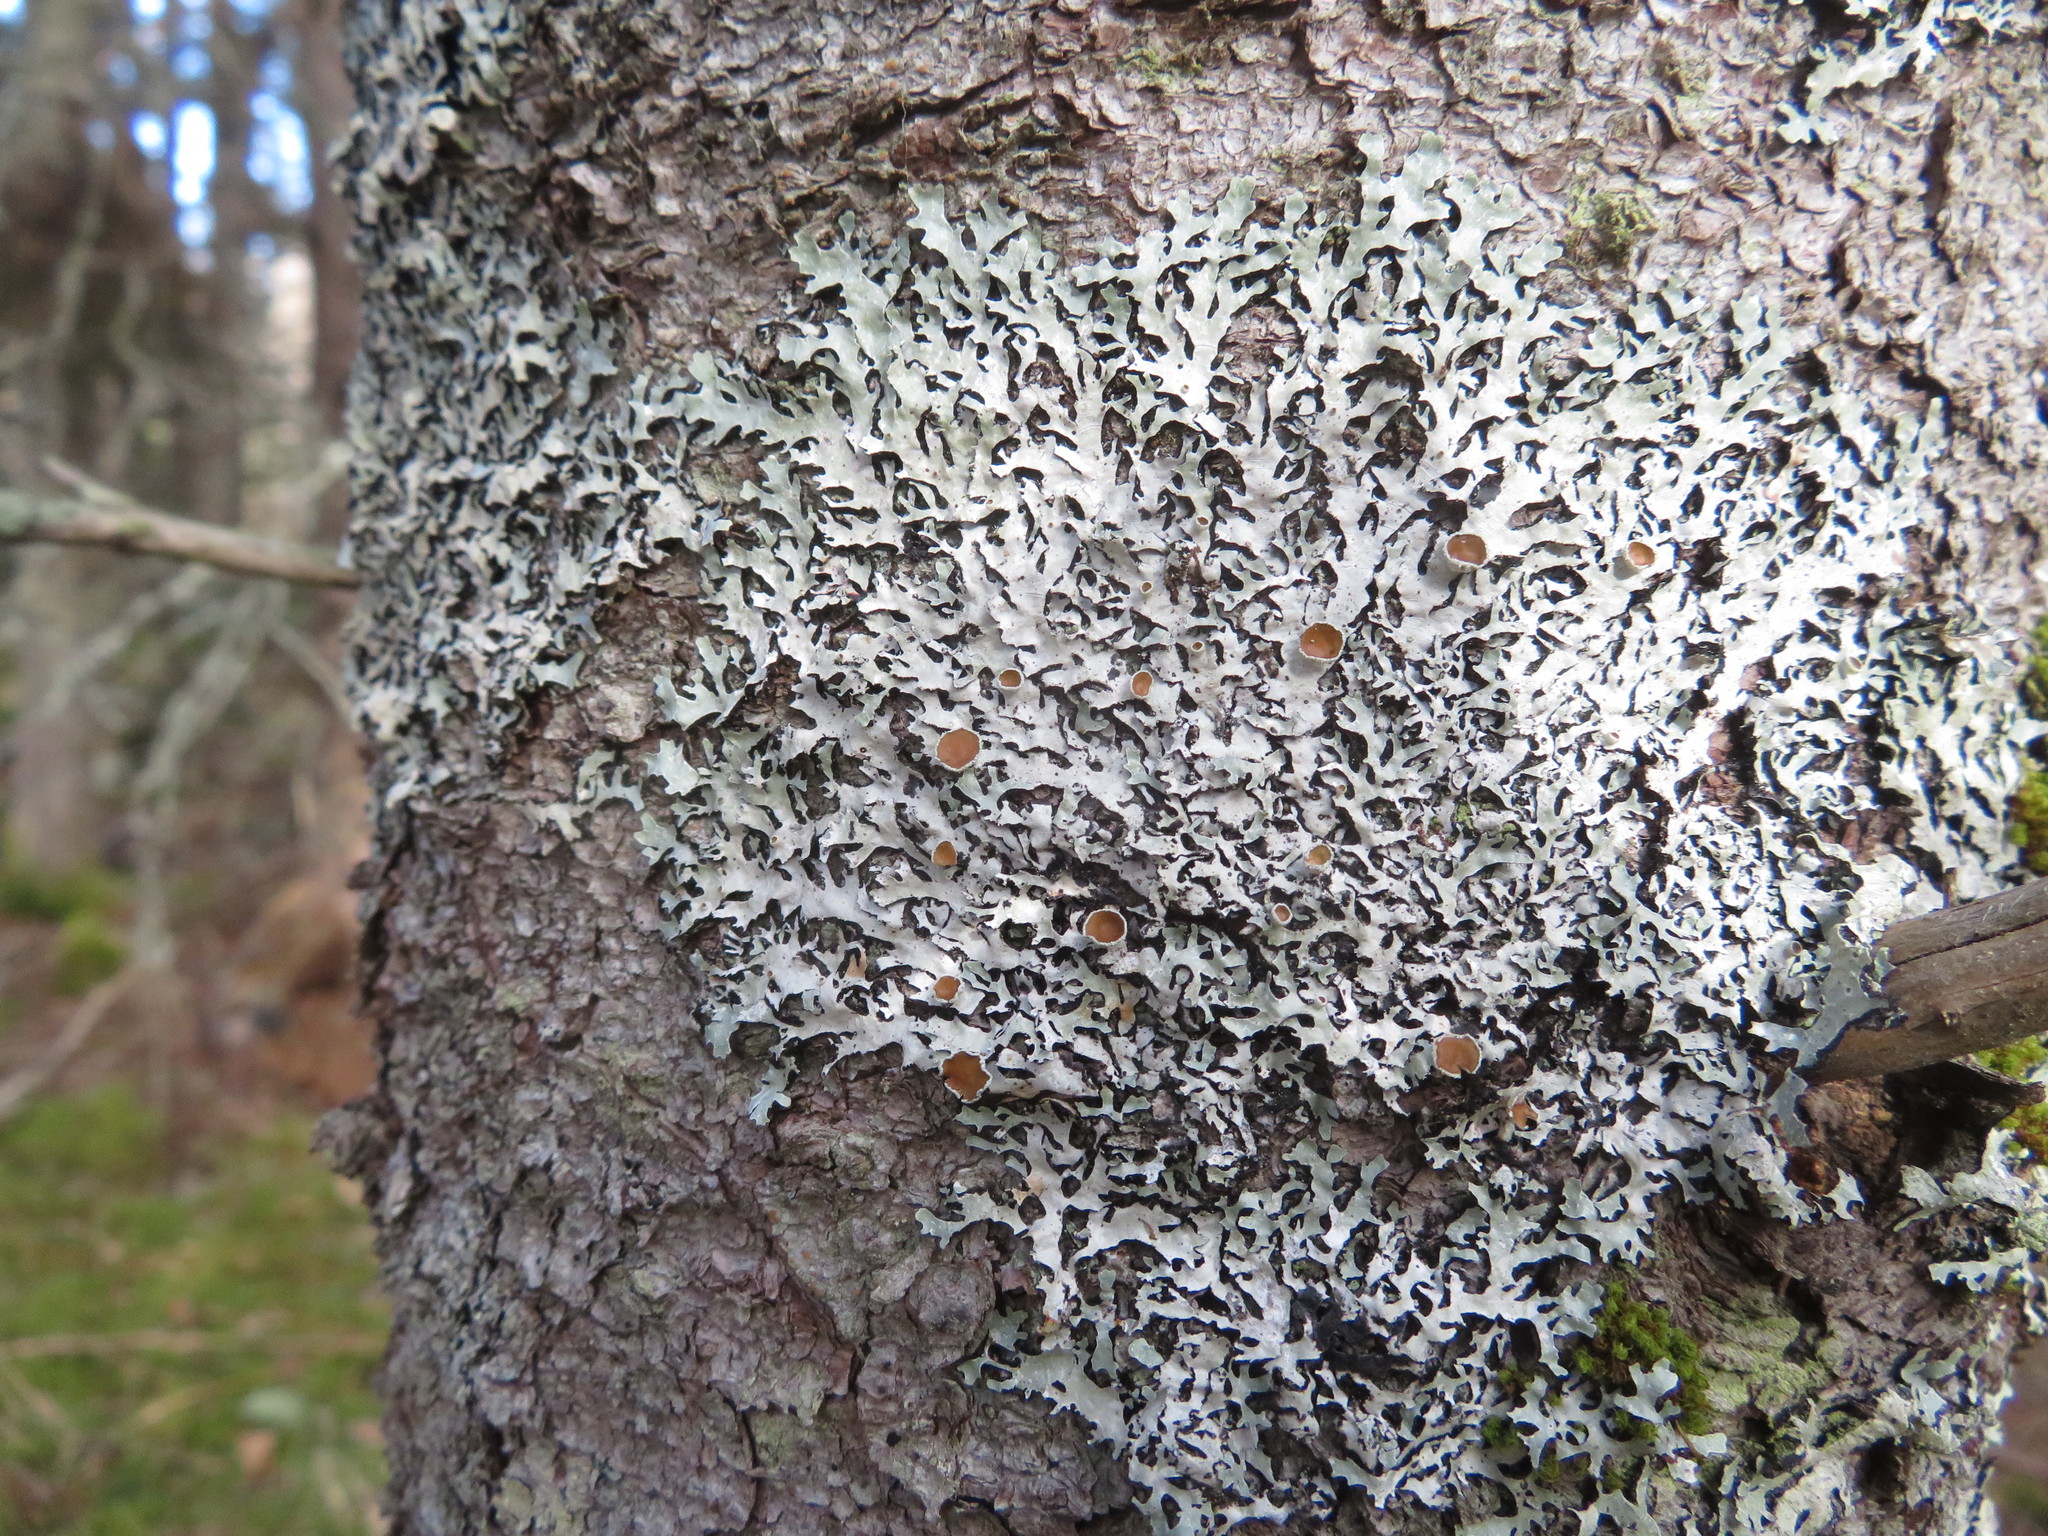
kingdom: Fungi
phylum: Ascomycota
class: Lecanoromycetes
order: Lecanorales
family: Parmeliaceae
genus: Parmelia
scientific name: Parmelia squarrosa
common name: Bottle brush shield lichen
